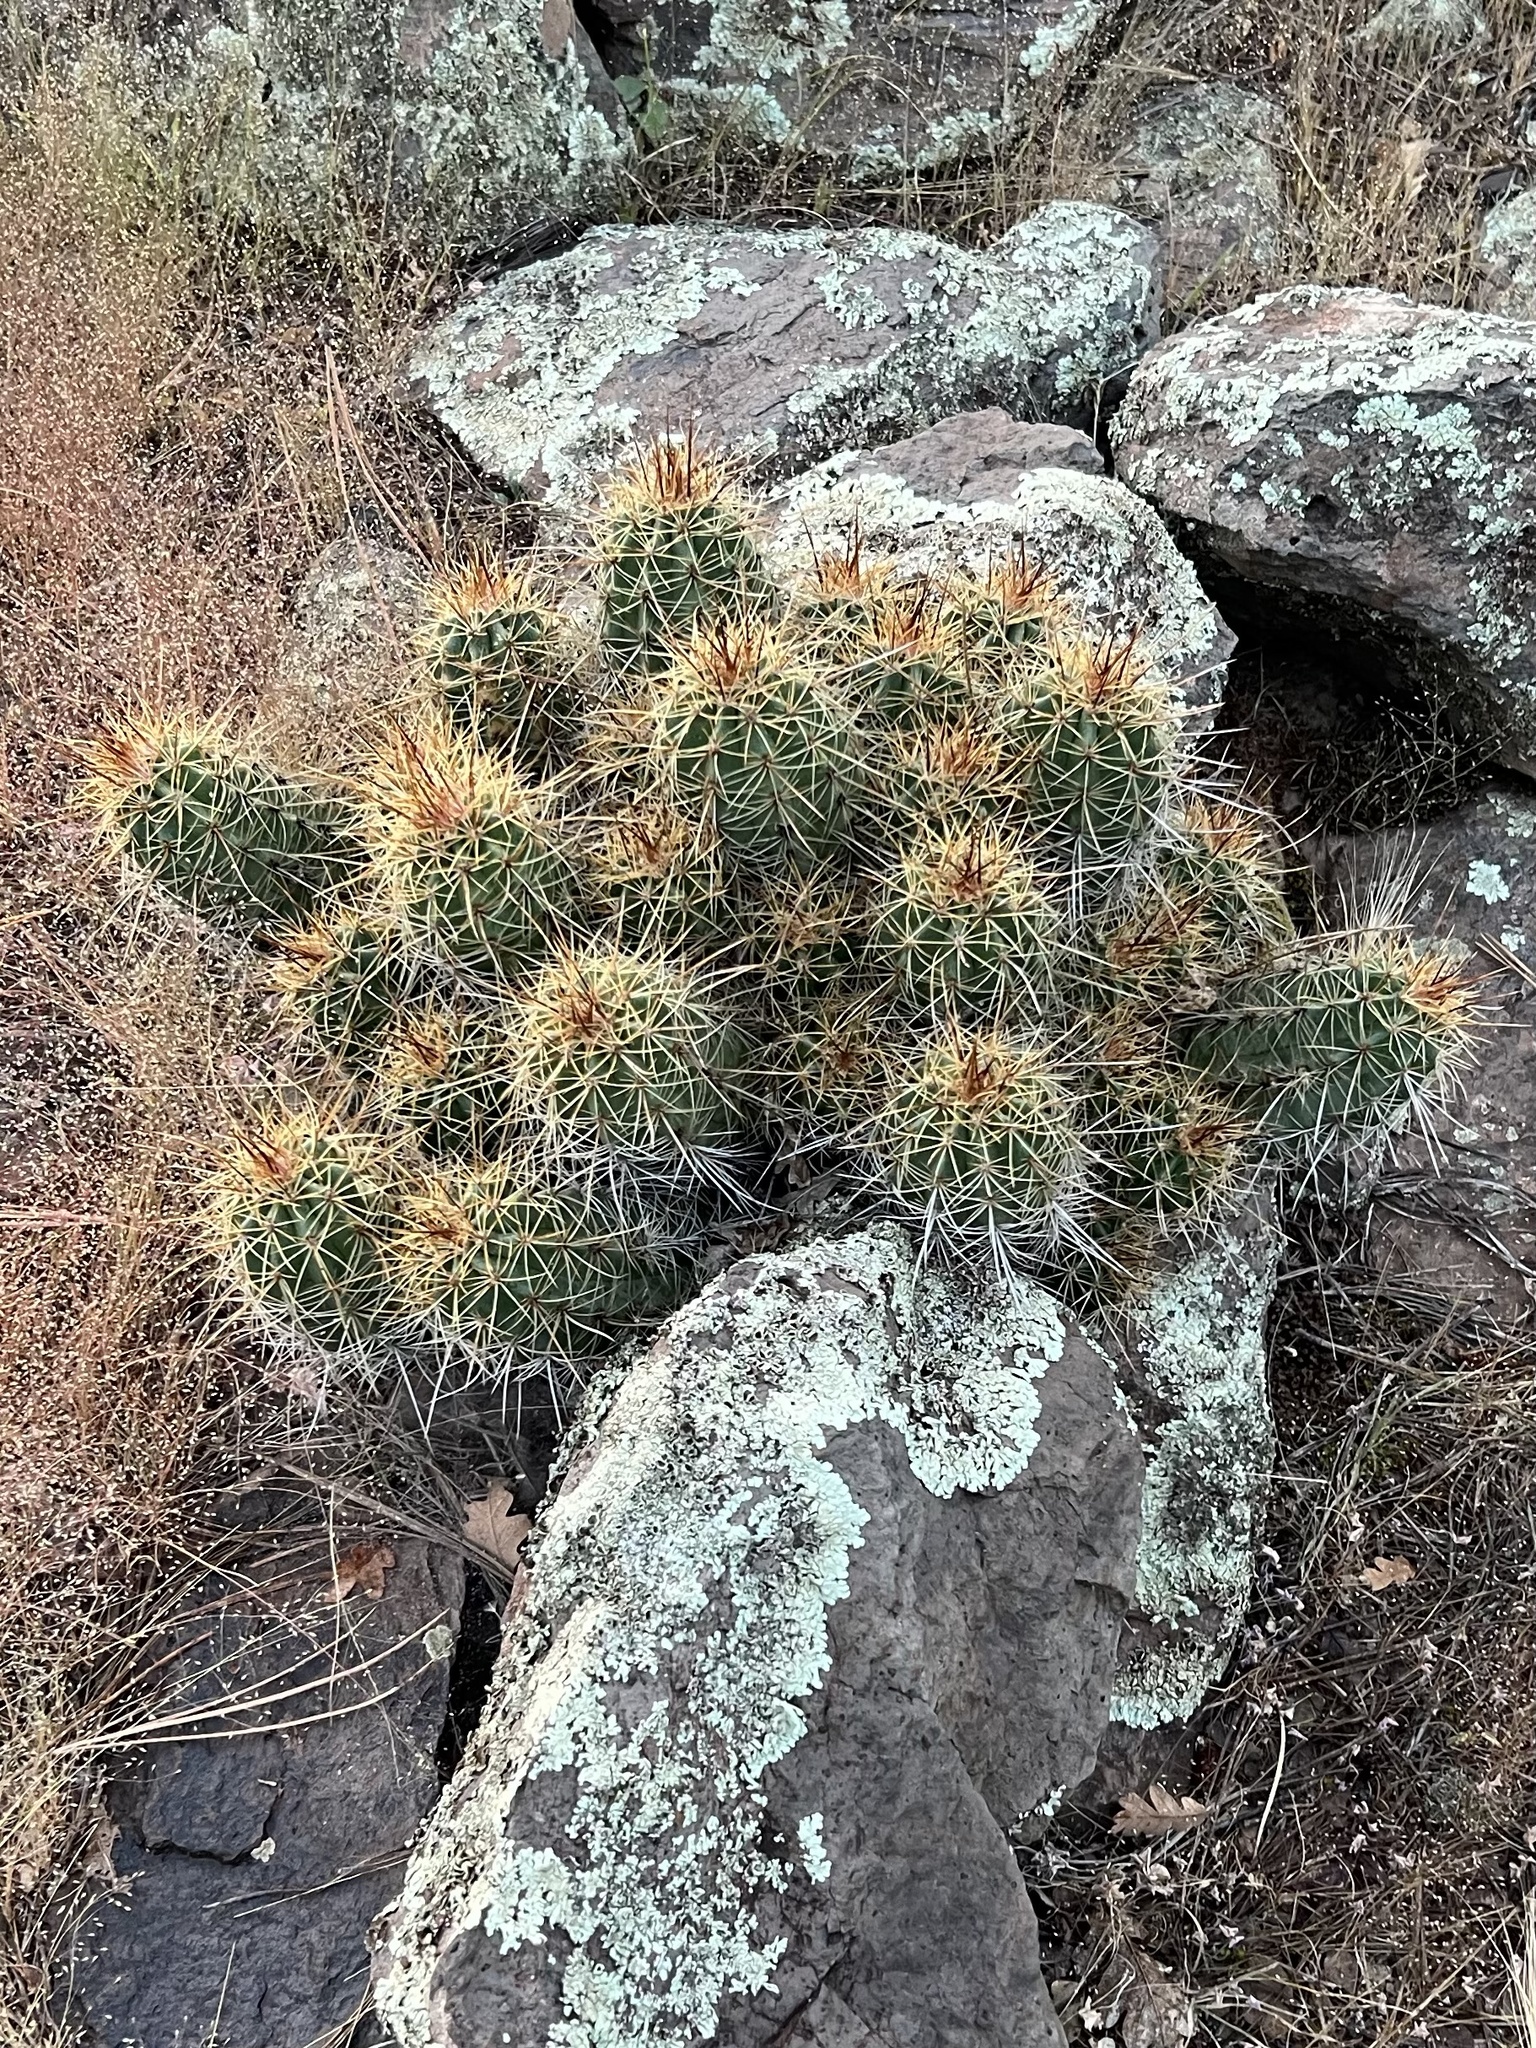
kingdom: Plantae
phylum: Tracheophyta
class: Magnoliopsida
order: Caryophyllales
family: Cactaceae
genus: Echinocereus
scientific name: Echinocereus bakeri
